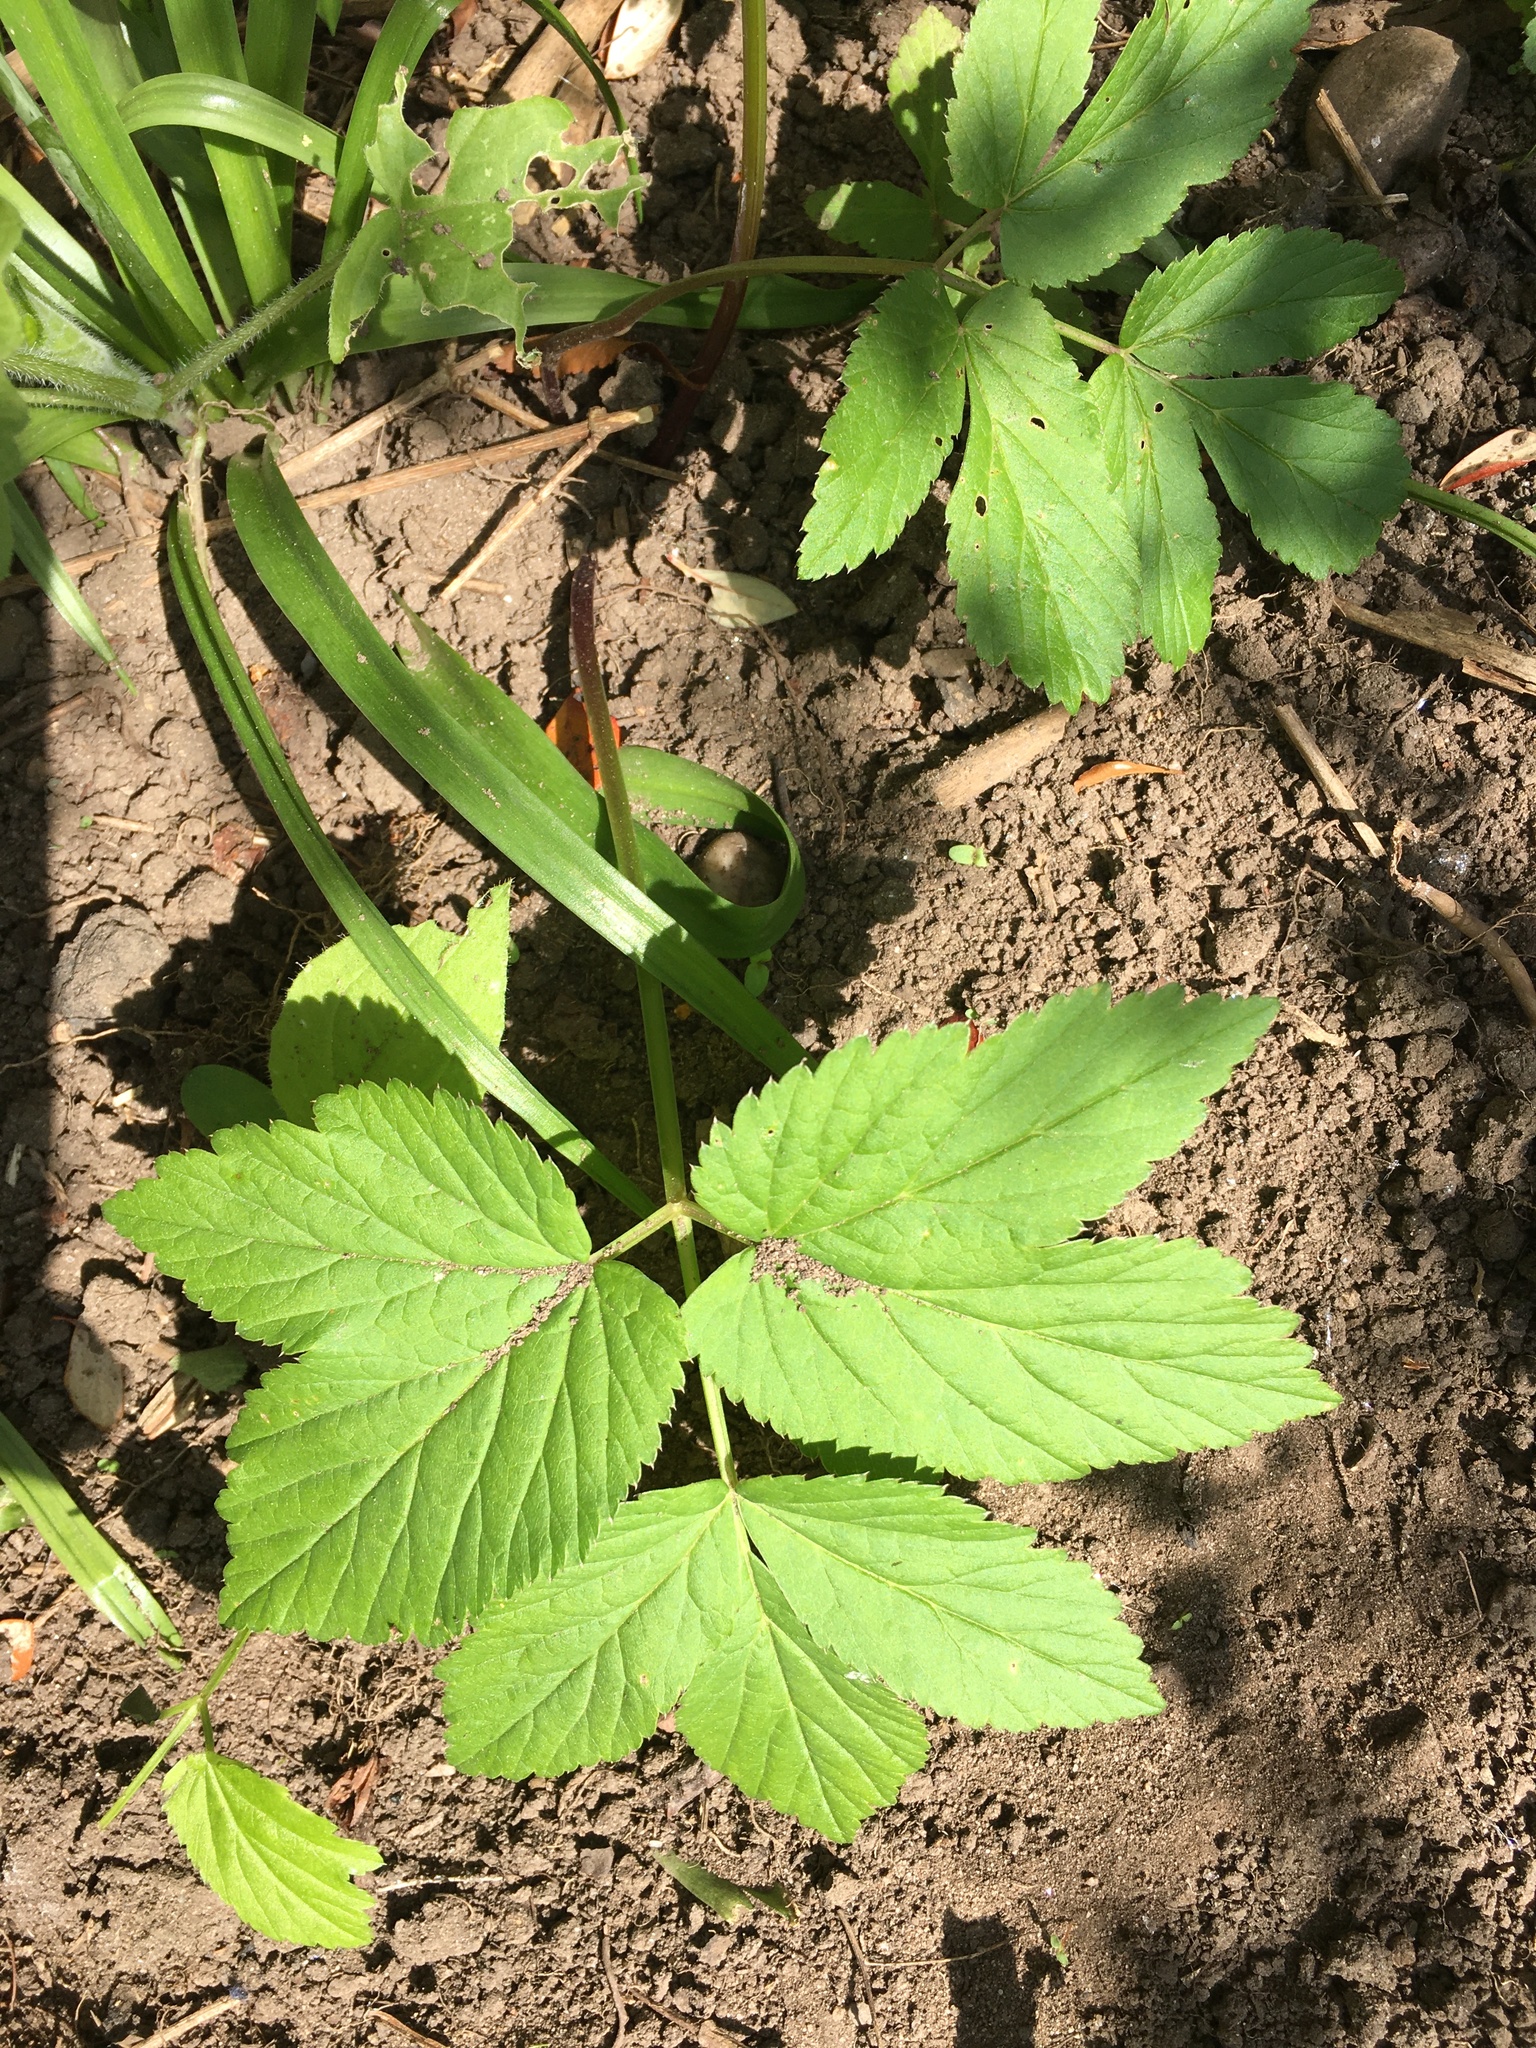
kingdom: Plantae
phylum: Tracheophyta
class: Magnoliopsida
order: Apiales
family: Apiaceae
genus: Aegopodium
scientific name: Aegopodium podagraria
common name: Ground-elder
